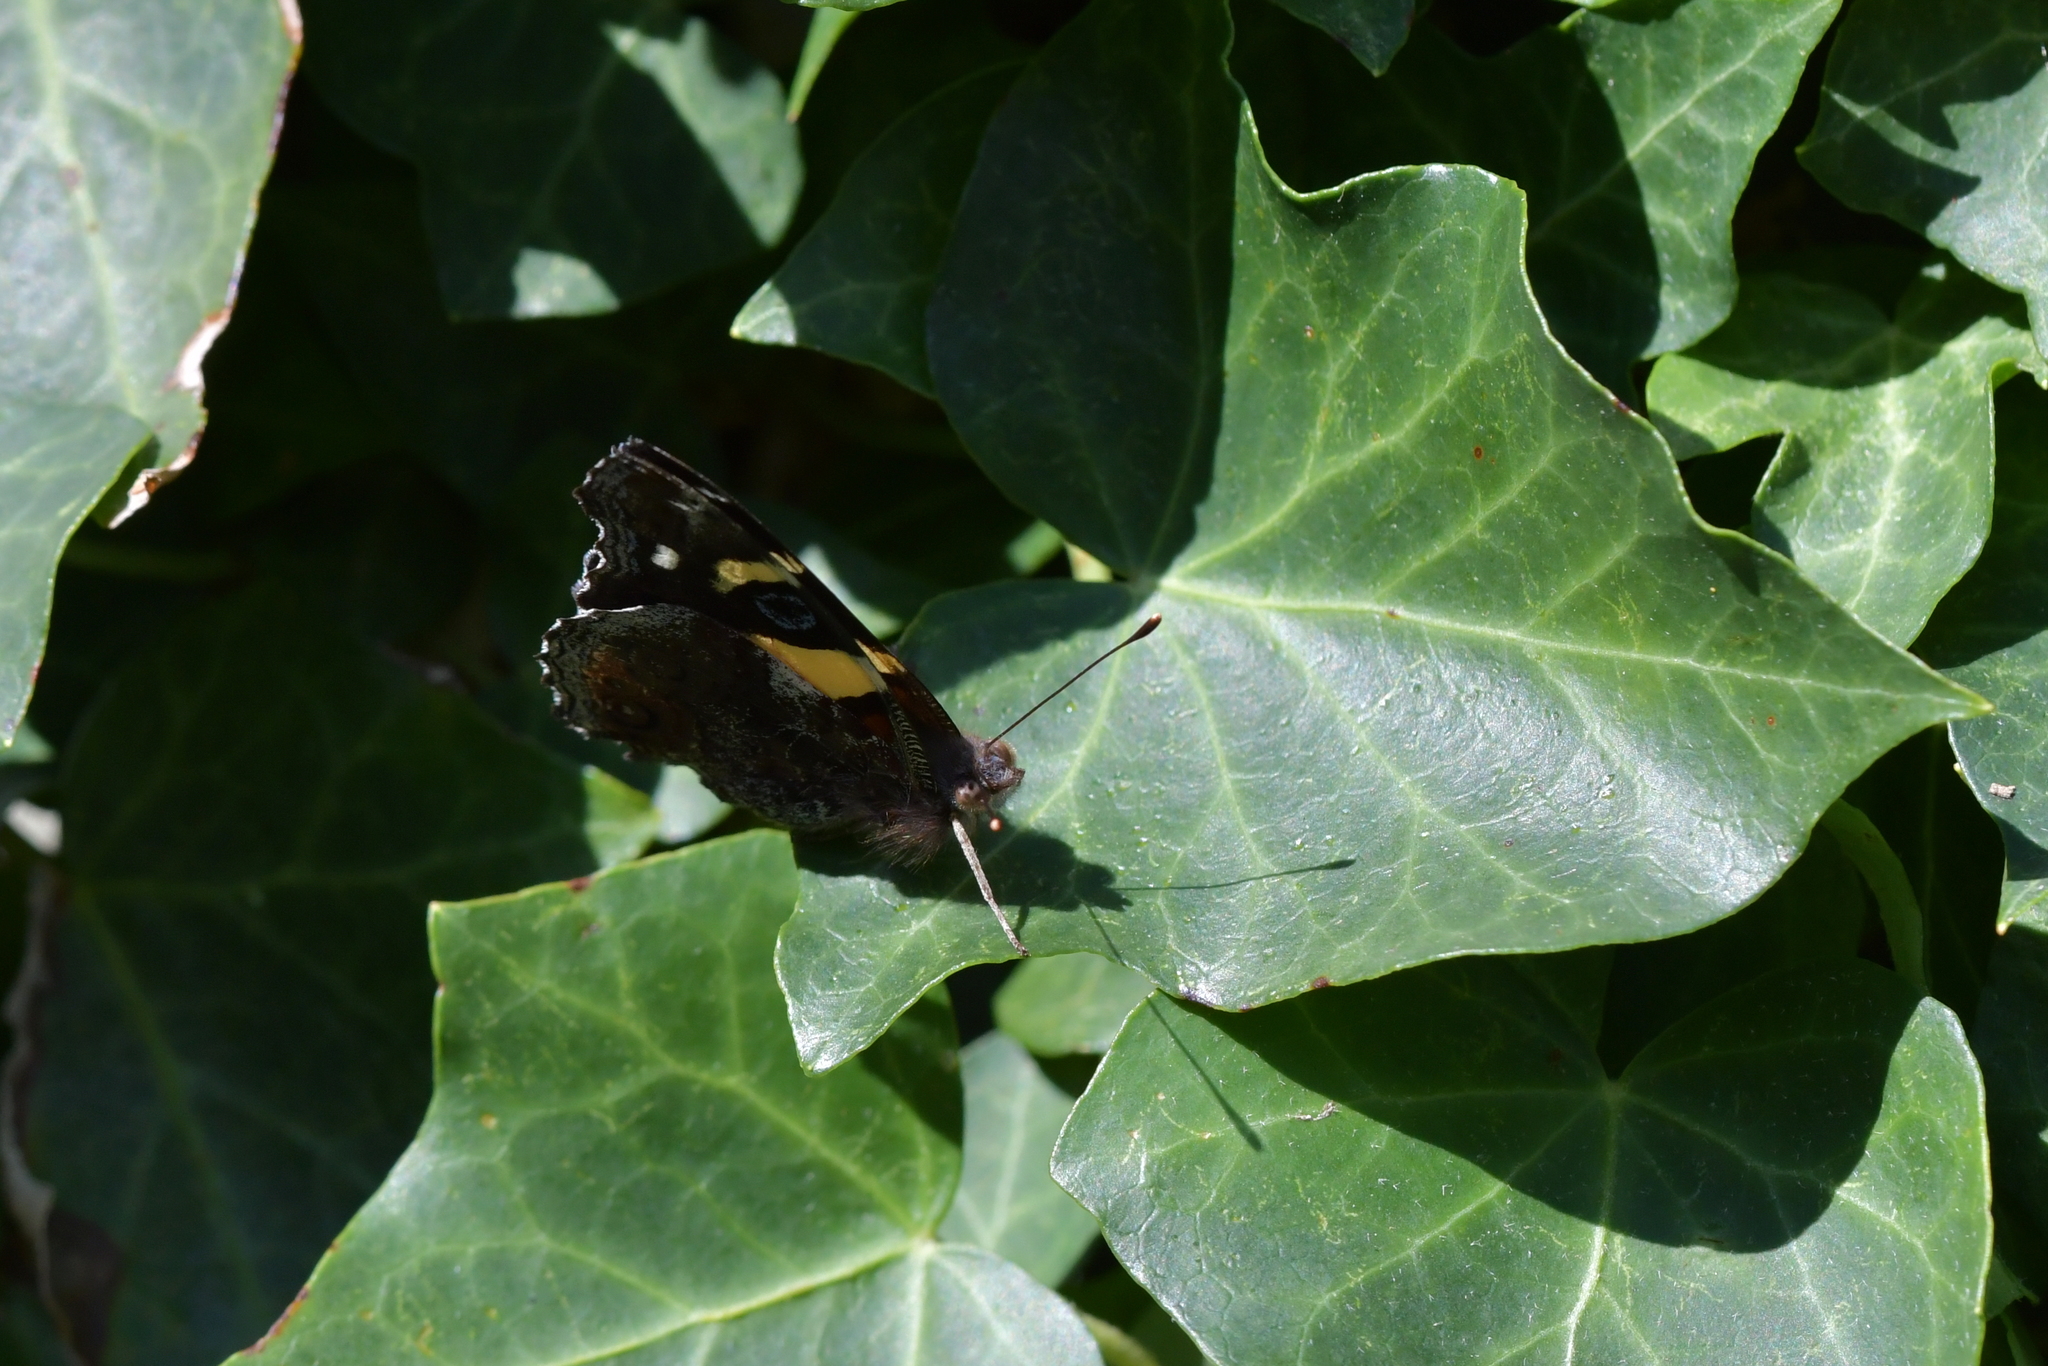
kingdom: Animalia
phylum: Arthropoda
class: Insecta
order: Lepidoptera
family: Nymphalidae
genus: Vanessa
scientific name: Vanessa itea
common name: Yellow admiral
